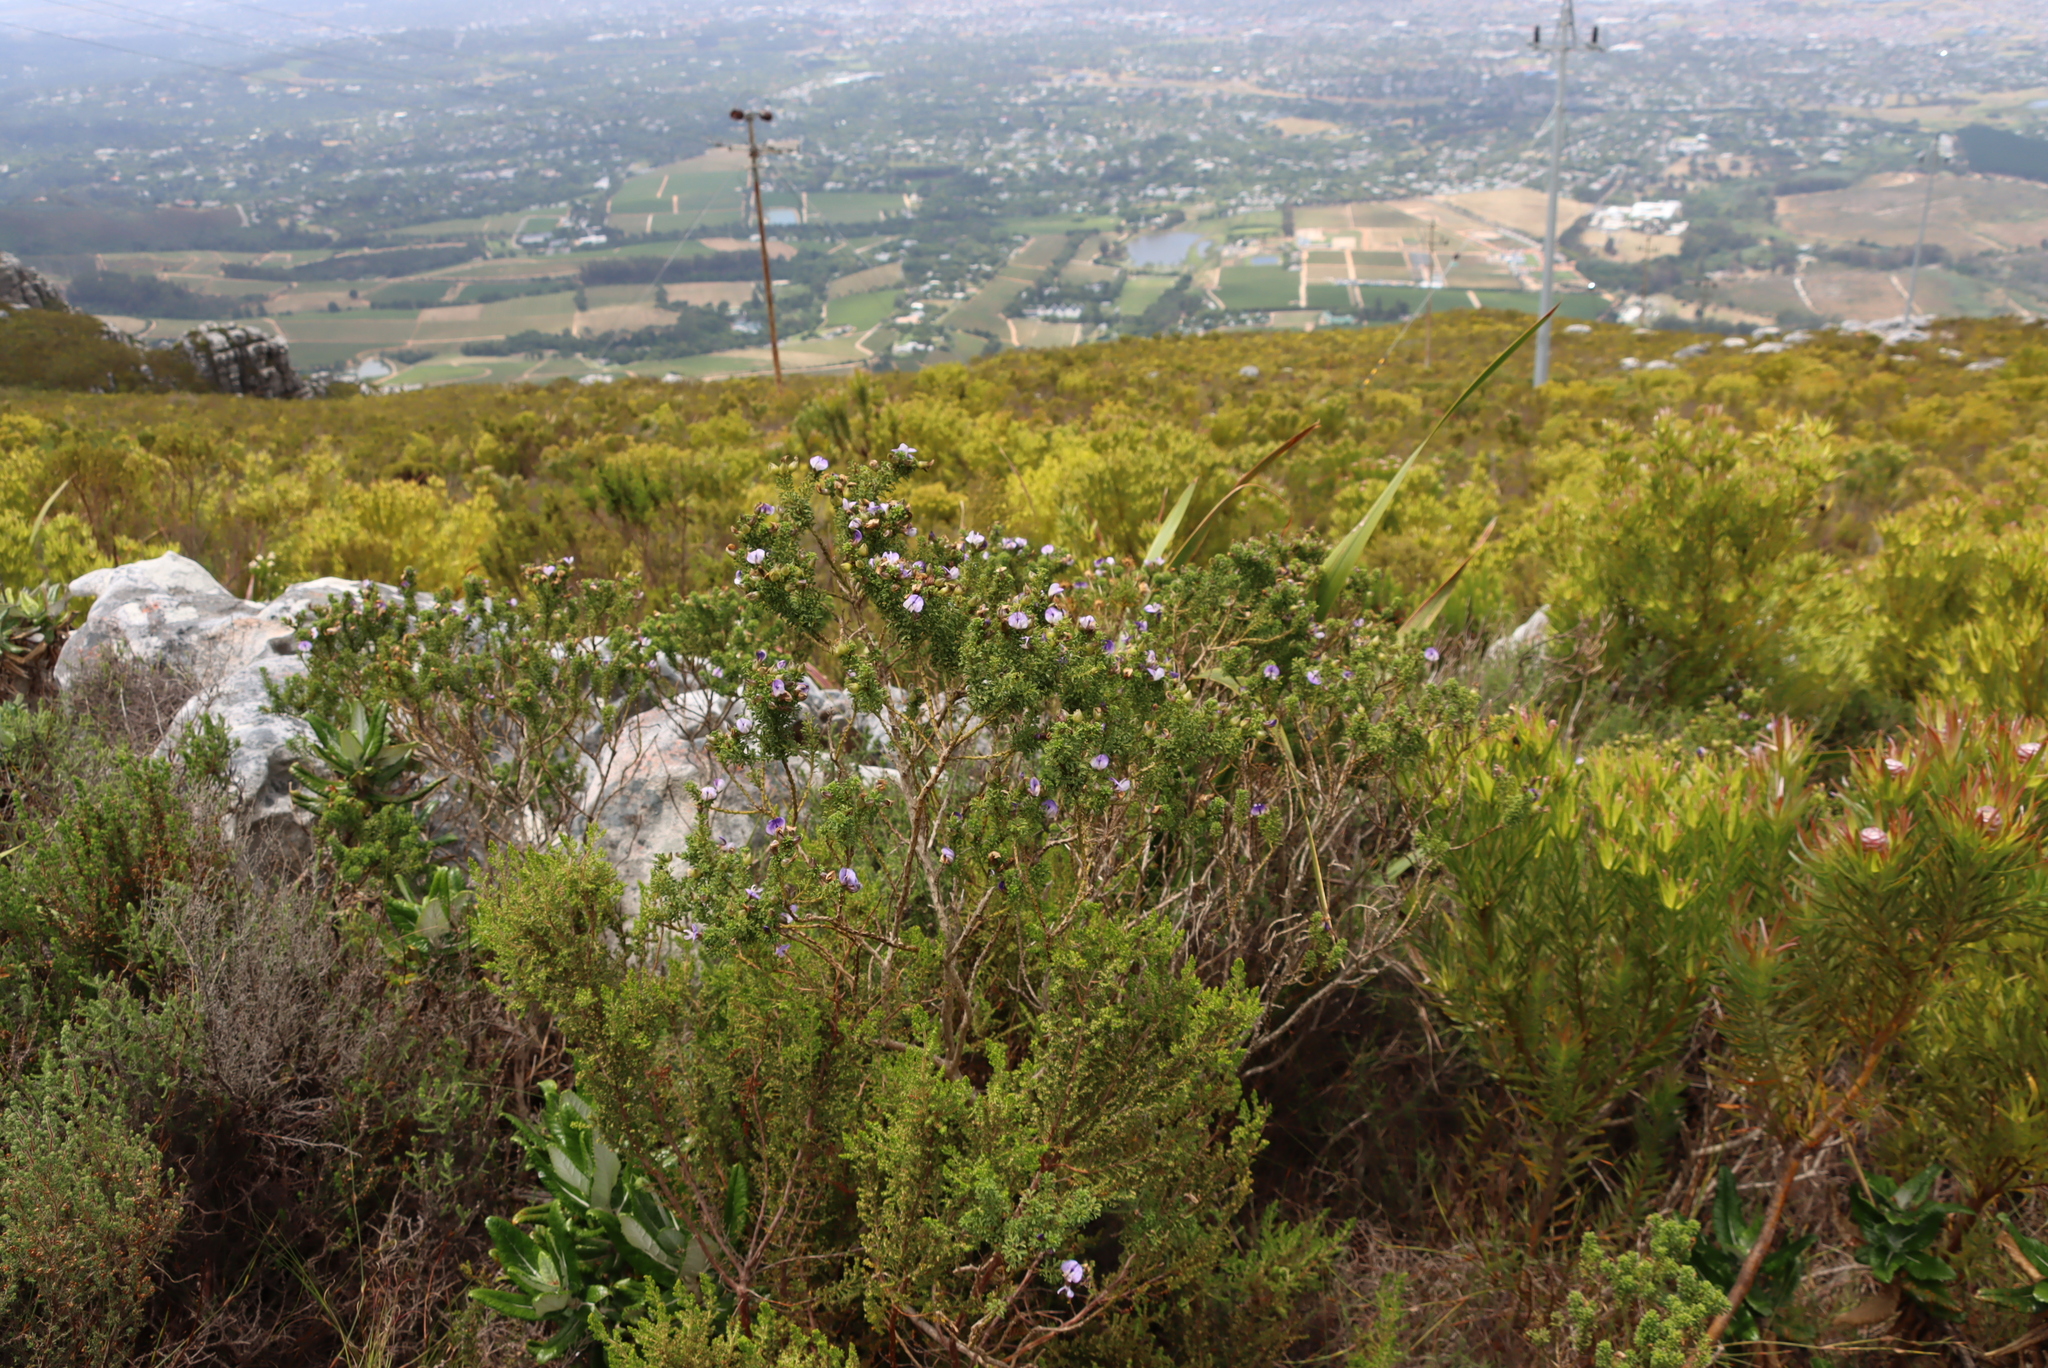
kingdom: Plantae
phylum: Tracheophyta
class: Magnoliopsida
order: Fabales
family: Fabaceae
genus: Psoralea
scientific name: Psoralea aculeata
